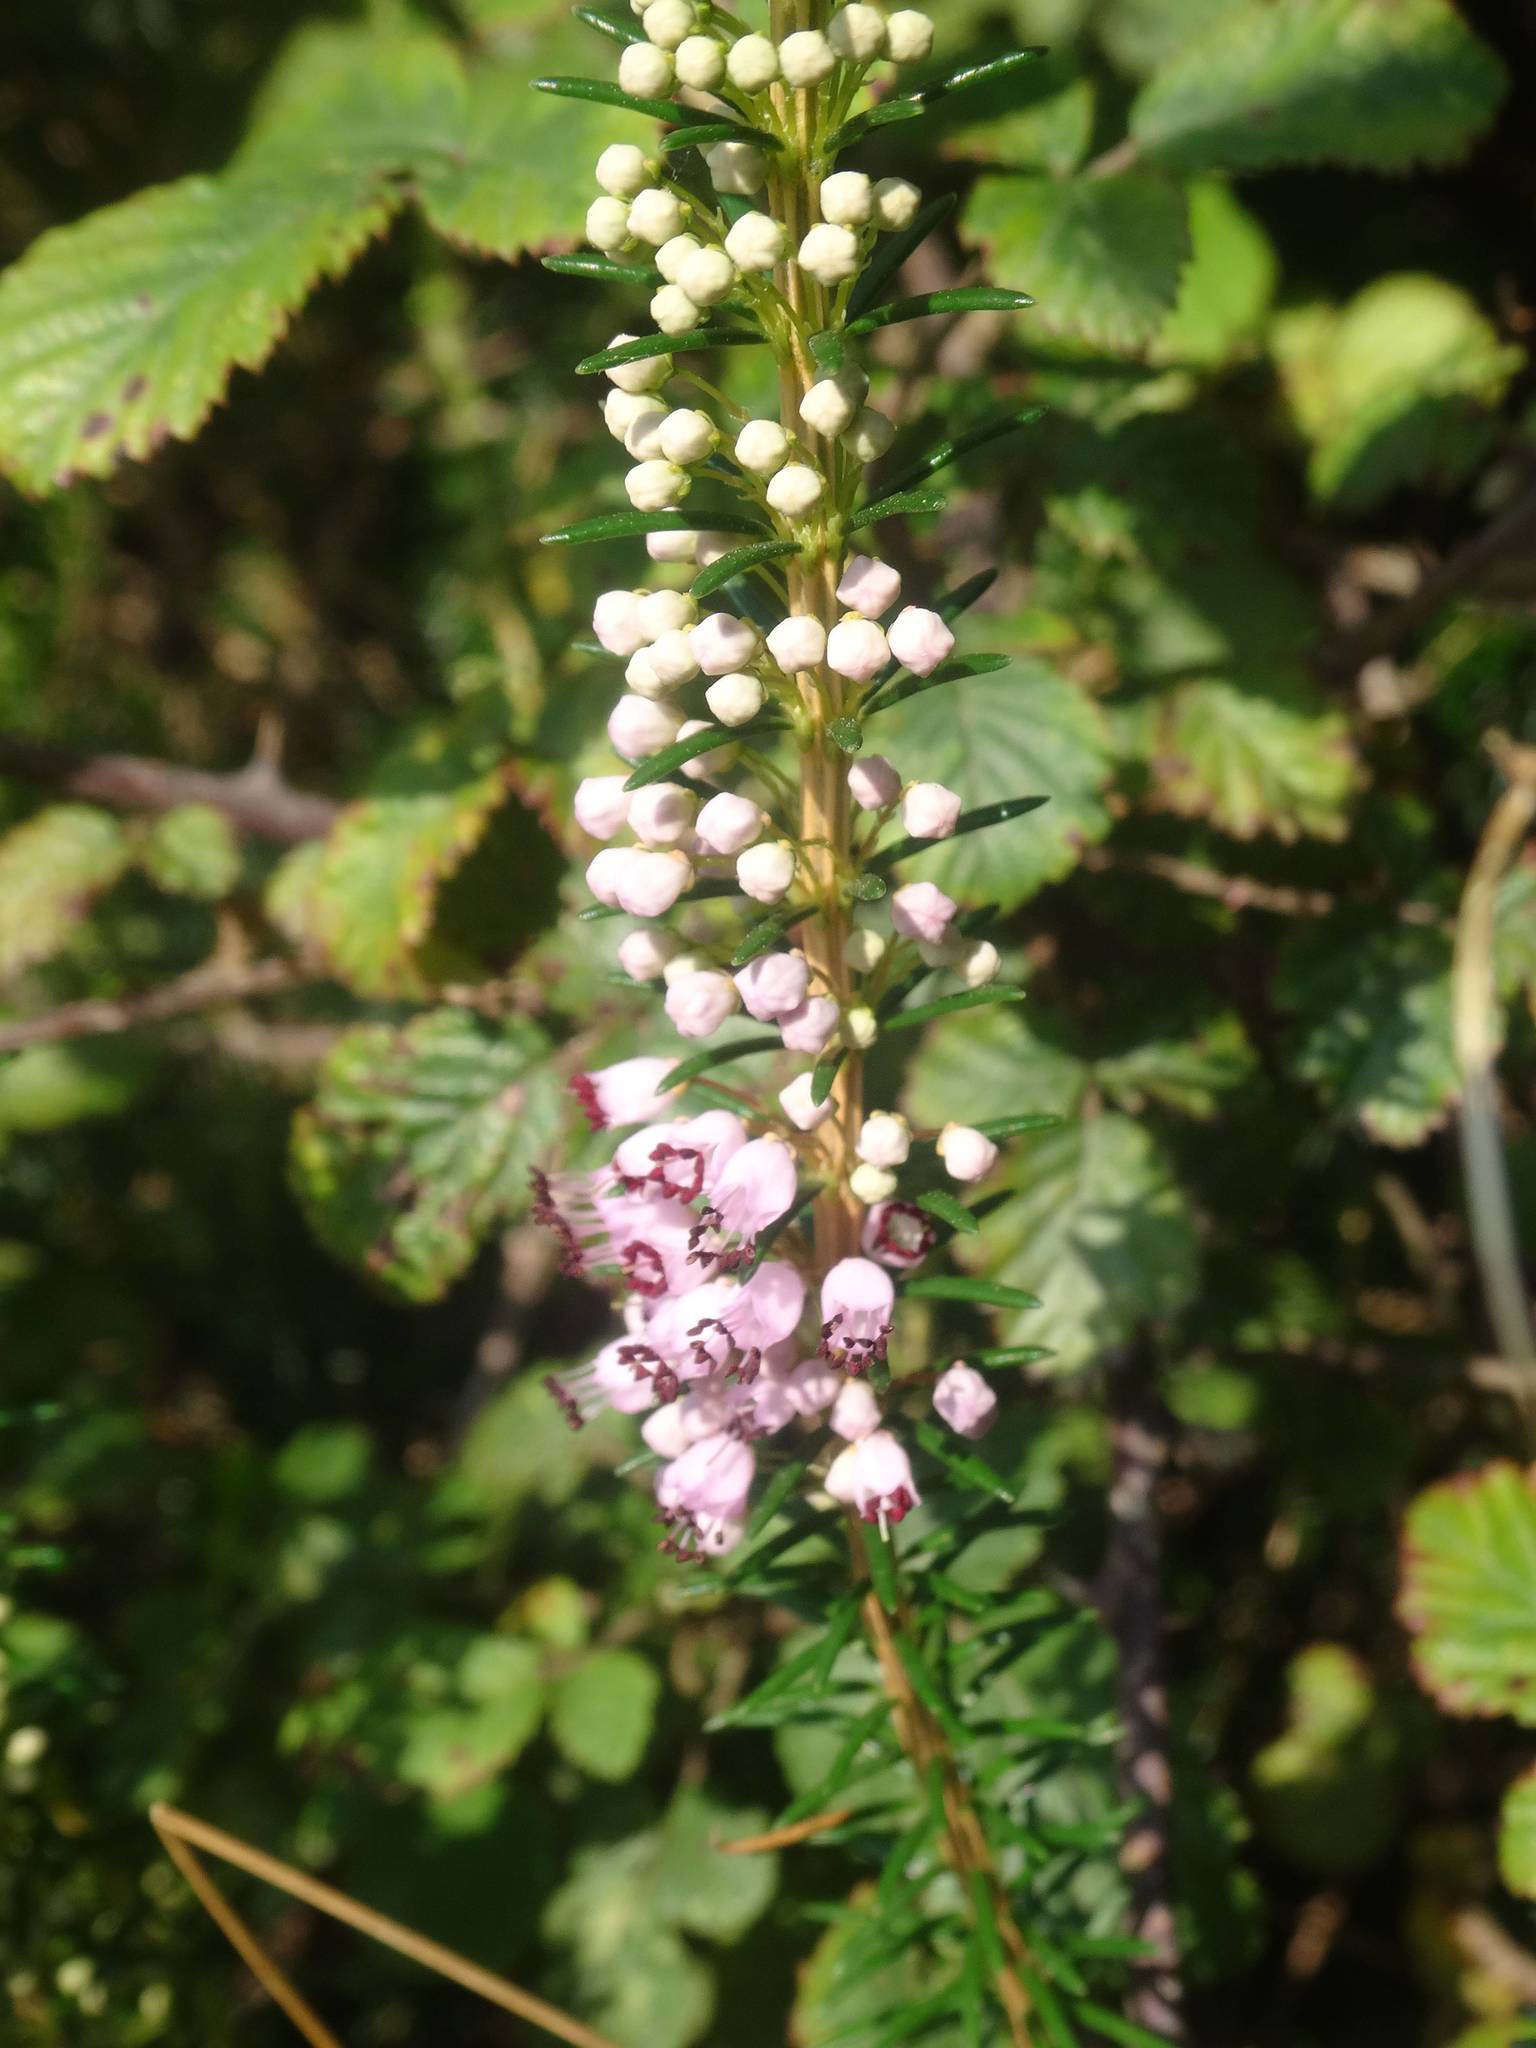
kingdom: Plantae
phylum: Tracheophyta
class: Magnoliopsida
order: Ericales
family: Ericaceae
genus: Erica
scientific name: Erica vagans
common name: Cornish heath
